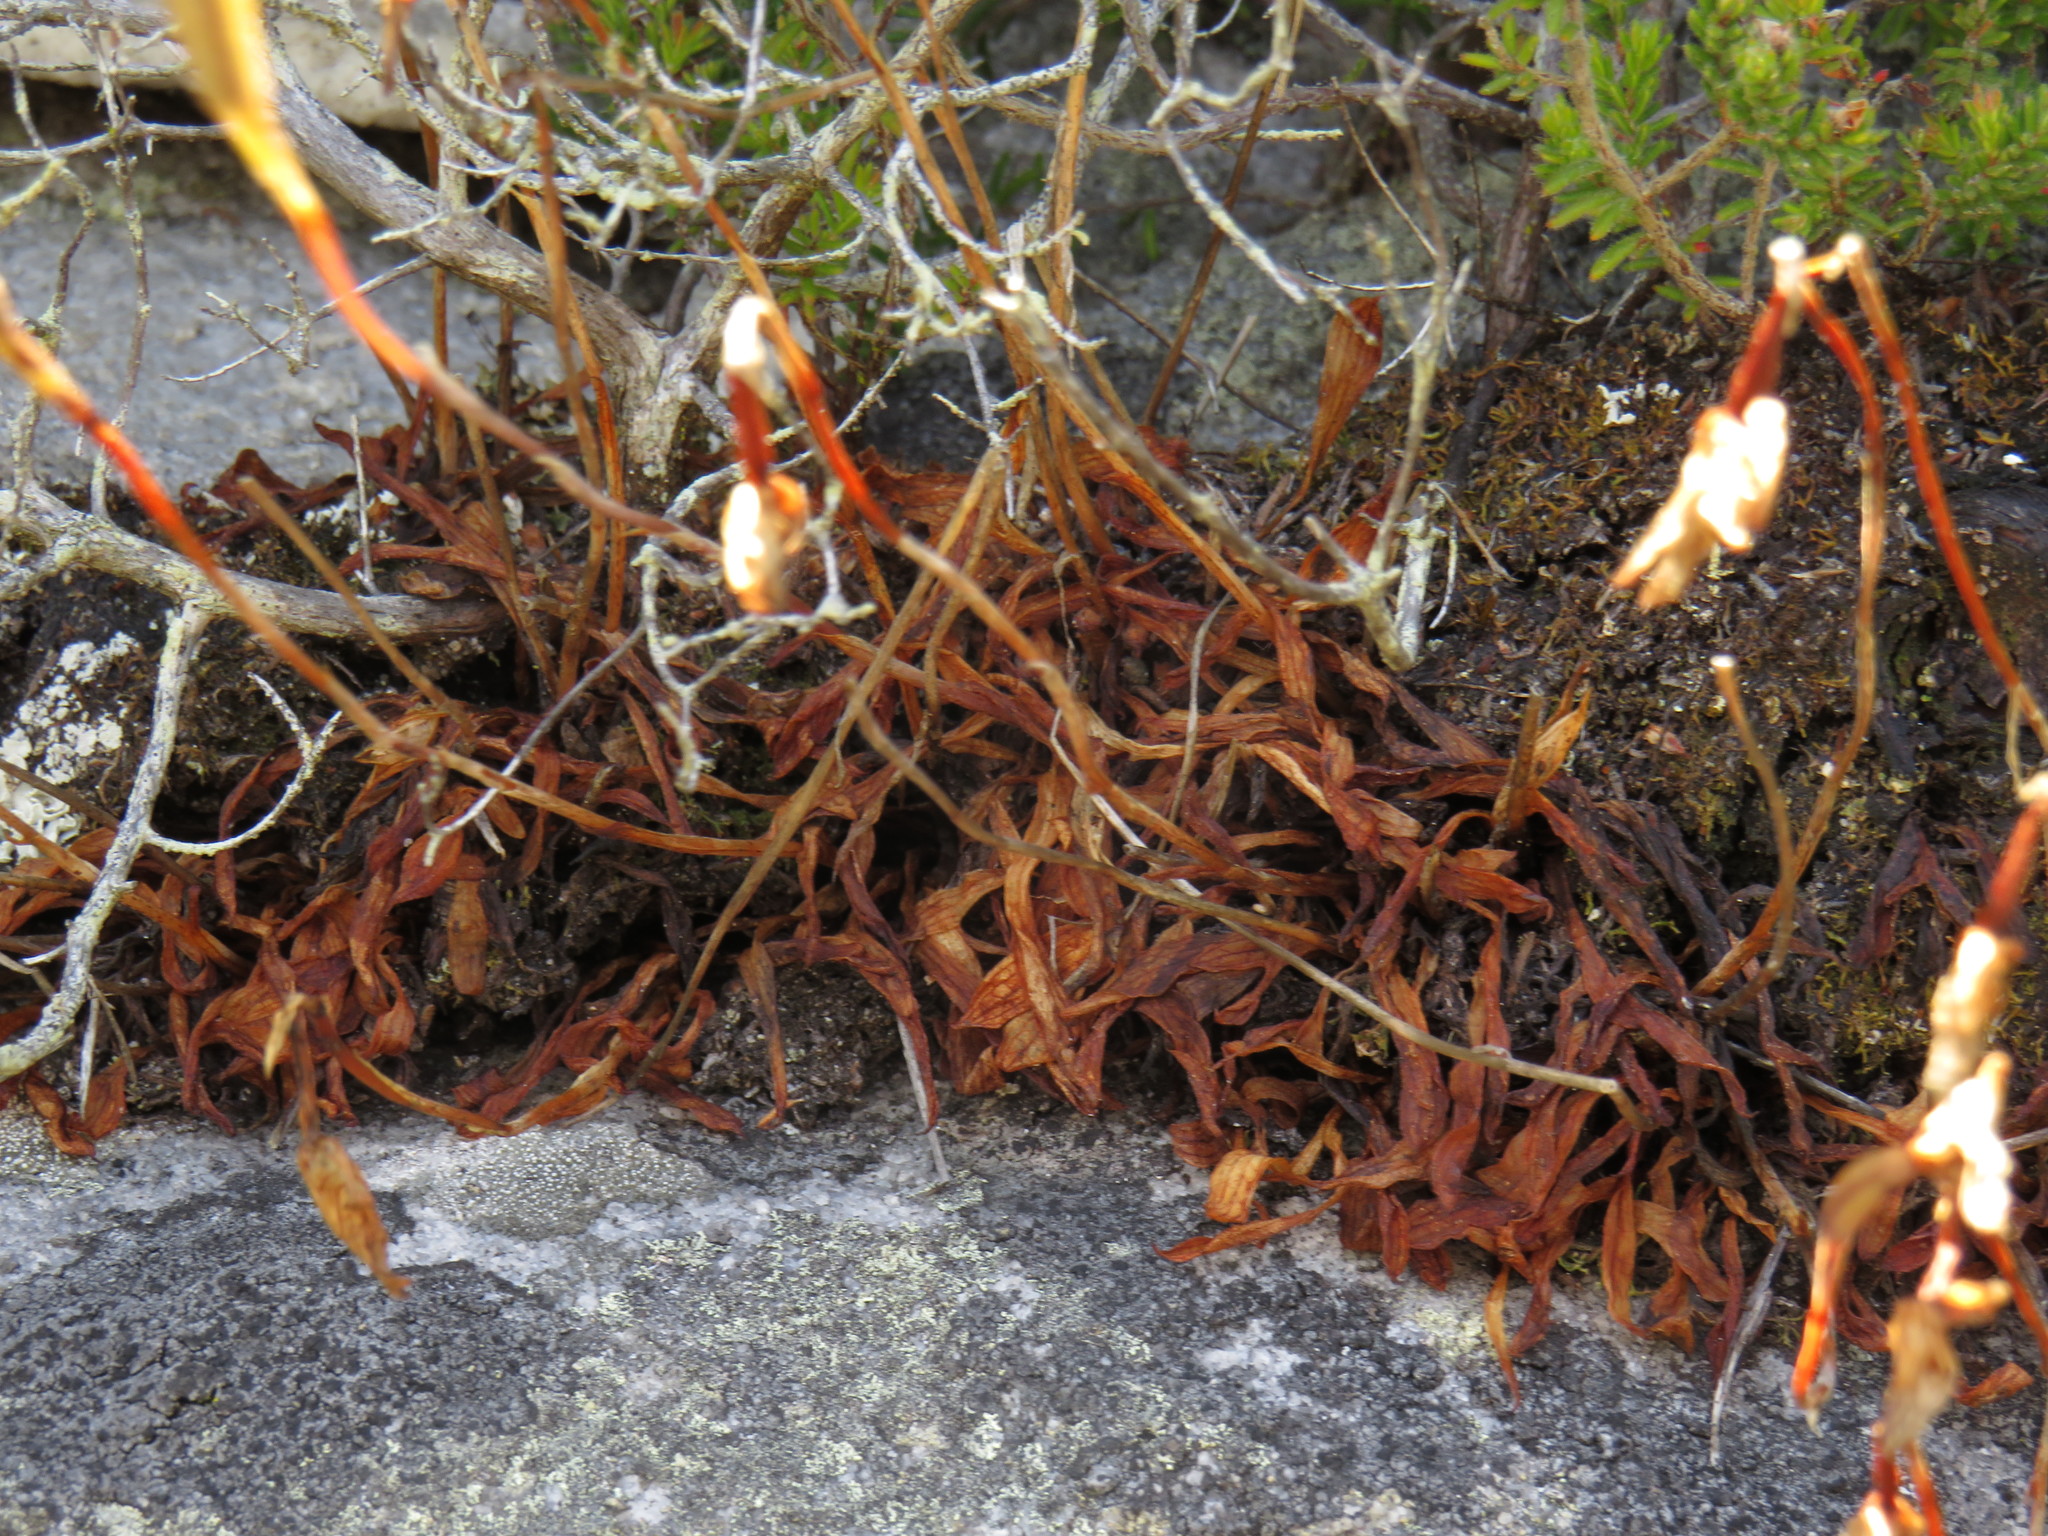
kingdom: Plantae
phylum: Tracheophyta
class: Liliopsida
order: Asparagales
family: Orchidaceae
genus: Disa
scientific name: Disa maculata
